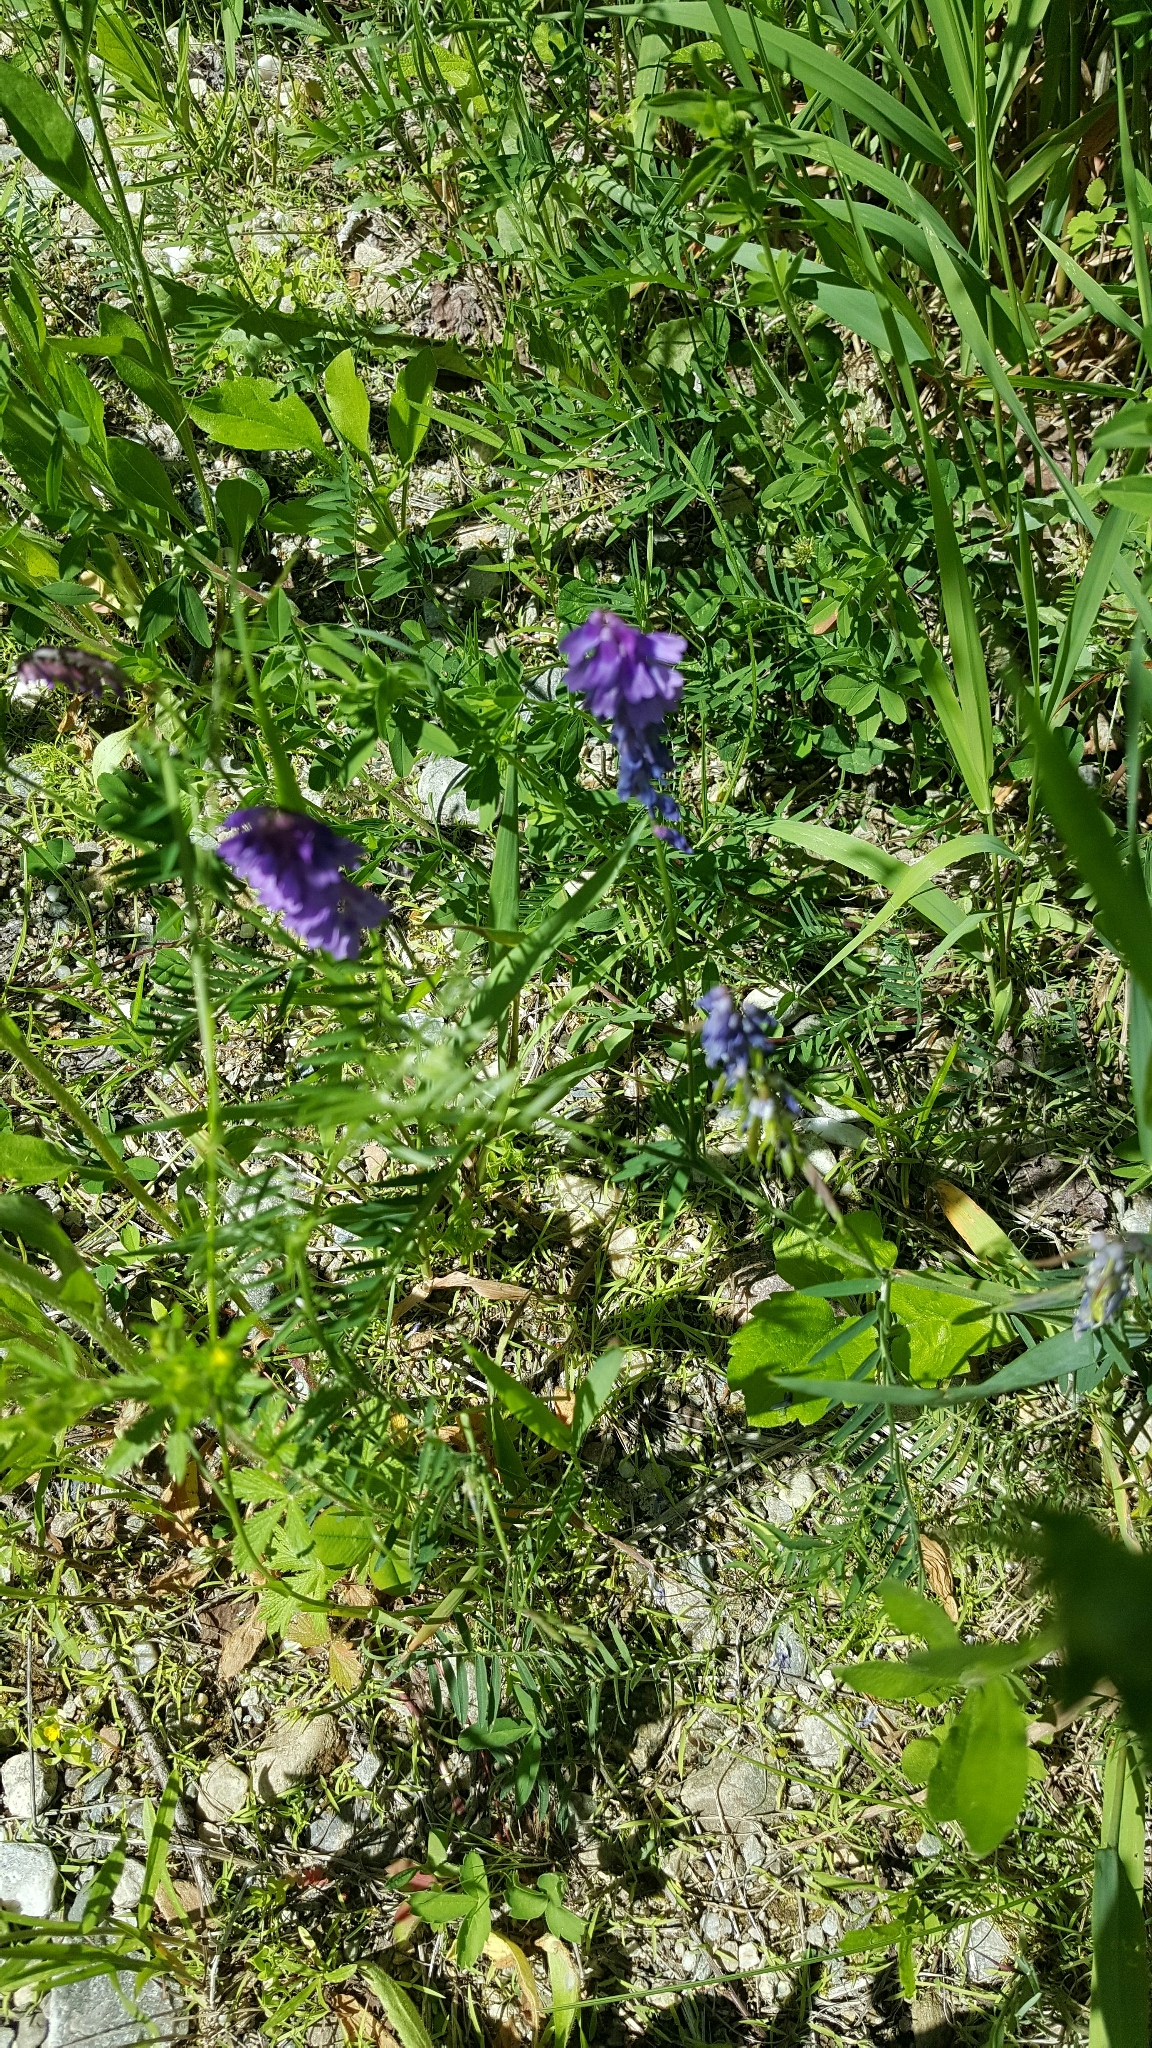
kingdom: Plantae
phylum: Tracheophyta
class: Magnoliopsida
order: Fabales
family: Fabaceae
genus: Vicia
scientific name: Vicia cracca
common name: Bird vetch
